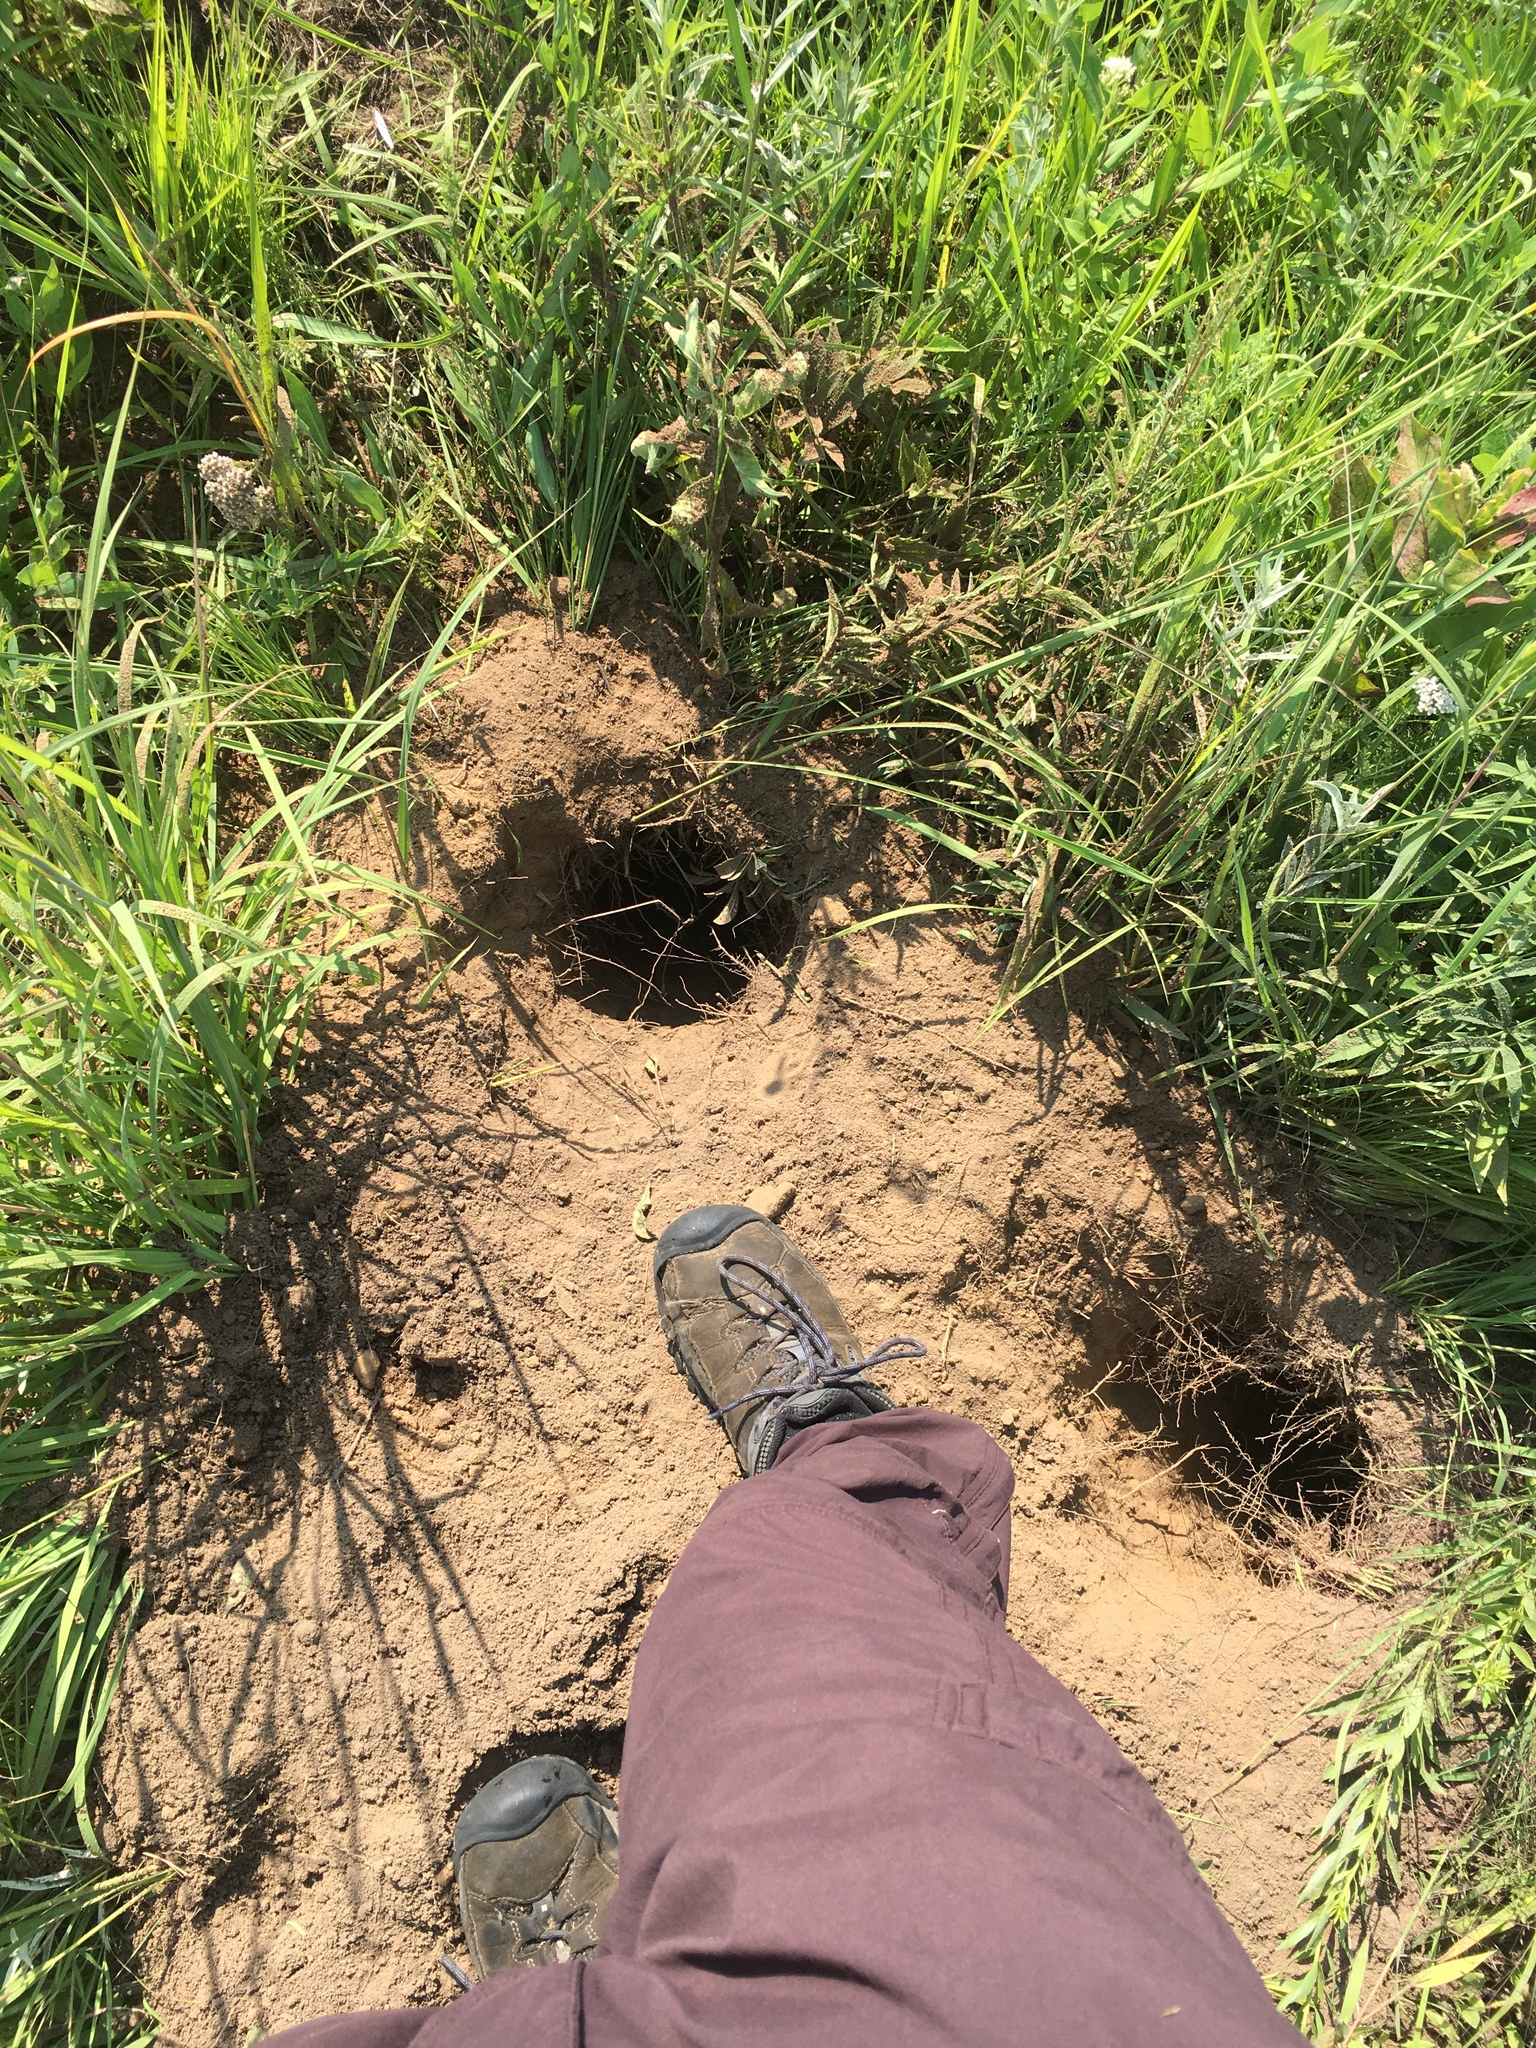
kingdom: Animalia
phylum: Chordata
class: Mammalia
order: Carnivora
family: Mustelidae
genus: Taxidea
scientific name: Taxidea taxus
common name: American badger
